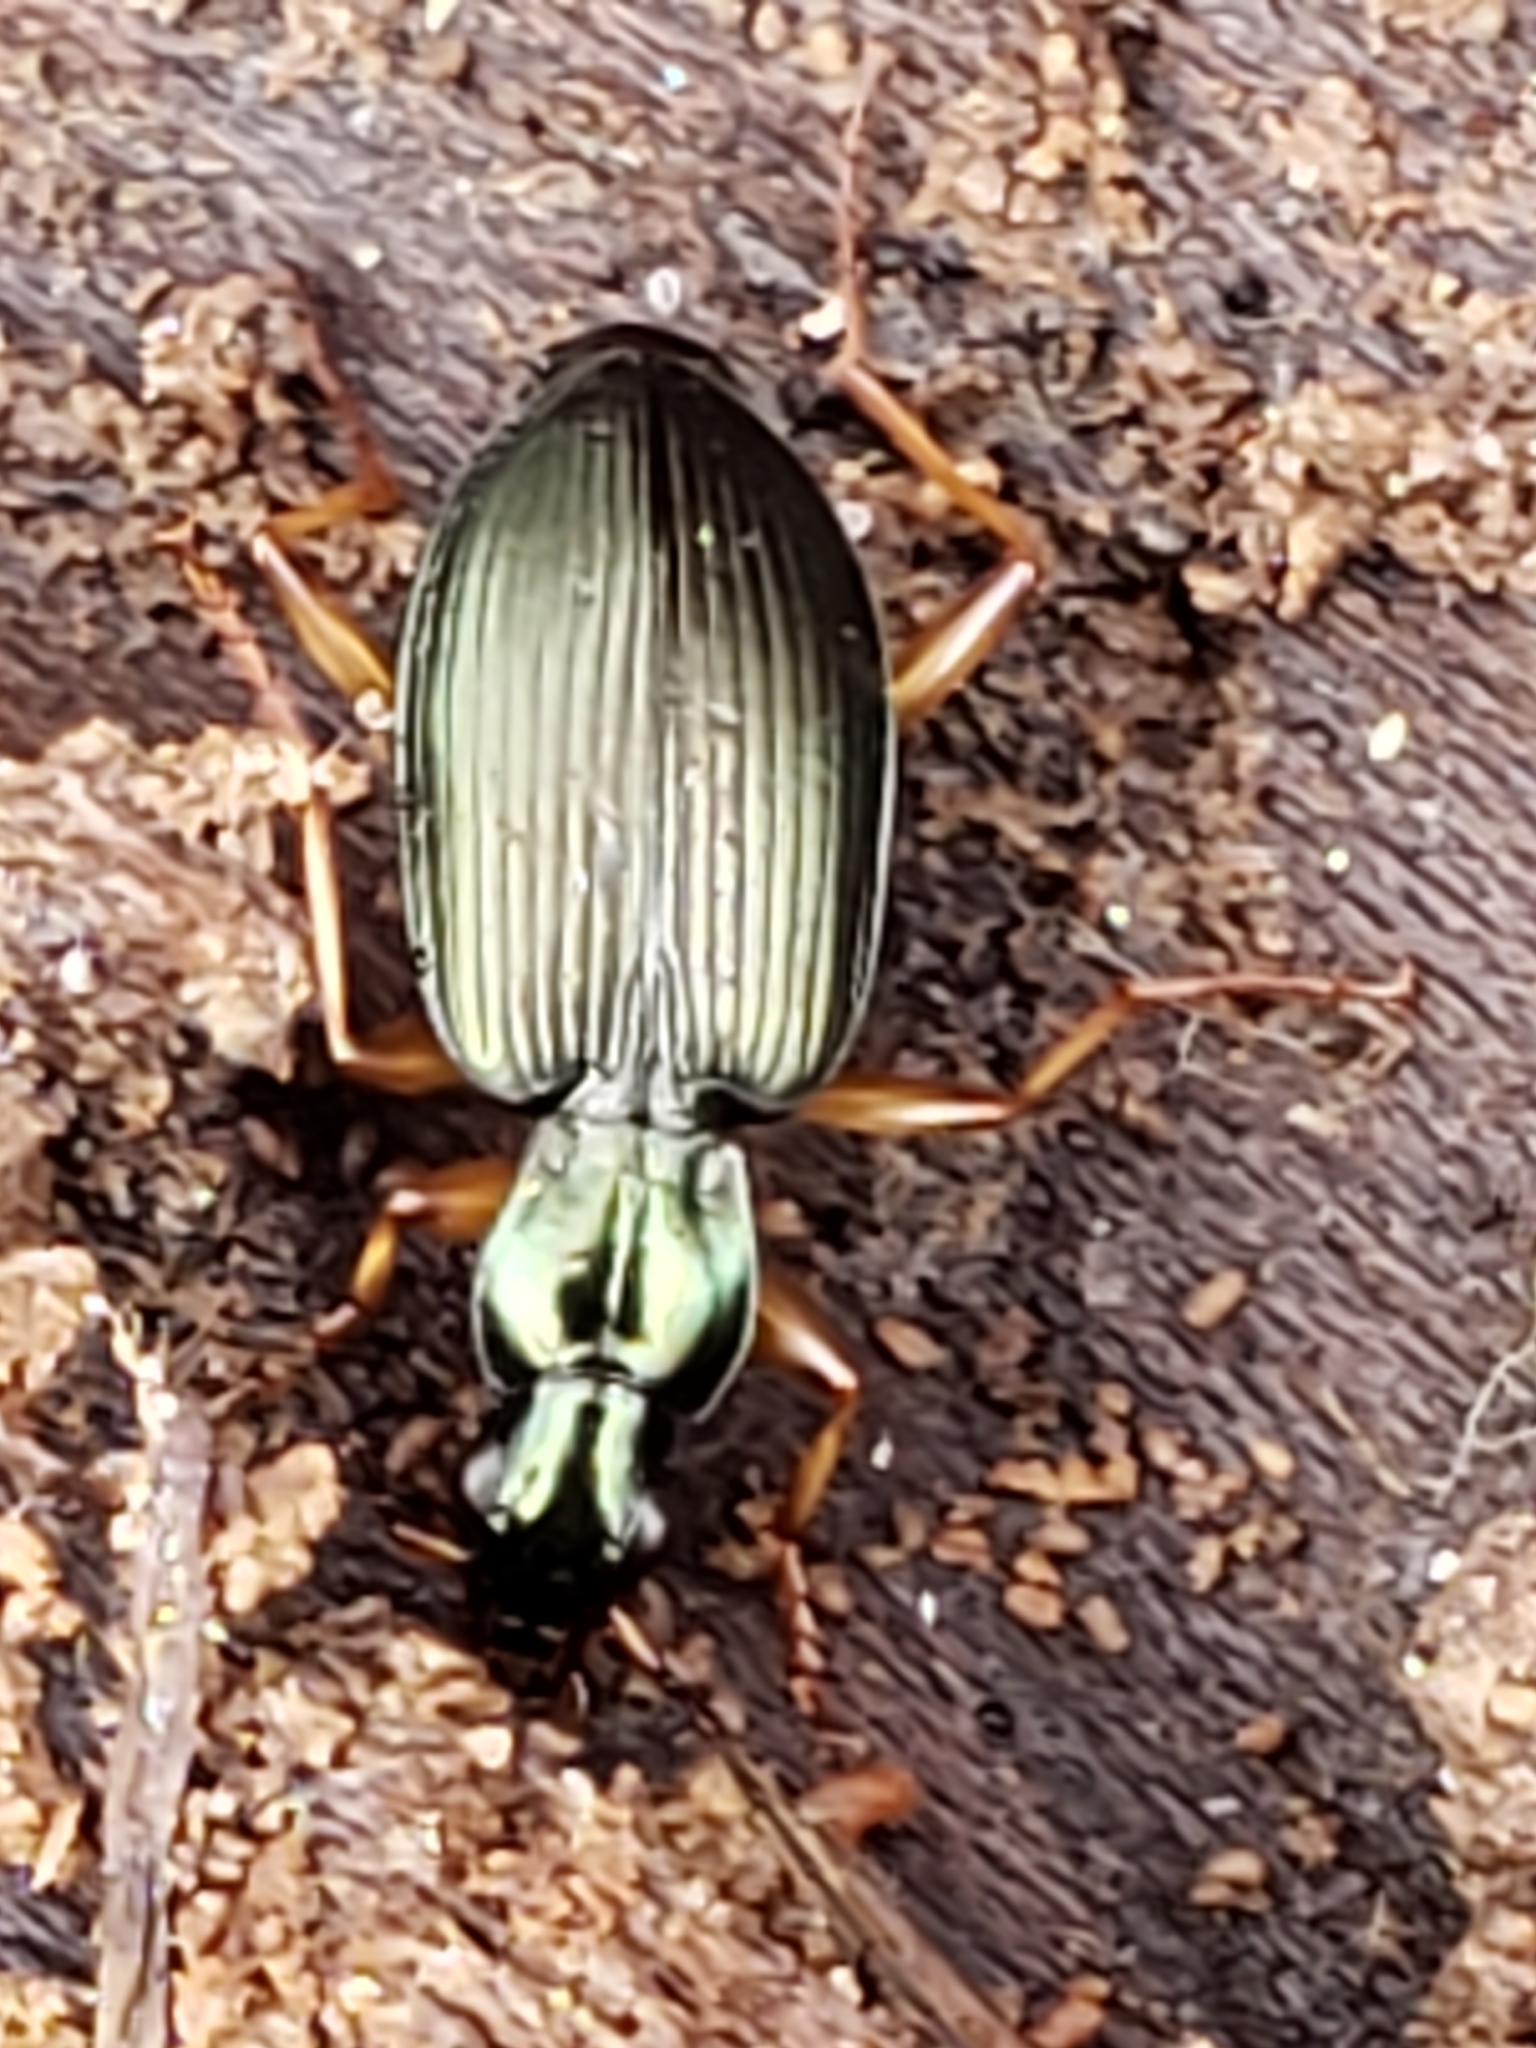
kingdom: Animalia
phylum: Arthropoda
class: Insecta
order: Coleoptera
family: Carabidae
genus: Agonum
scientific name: Agonum extensicolle
